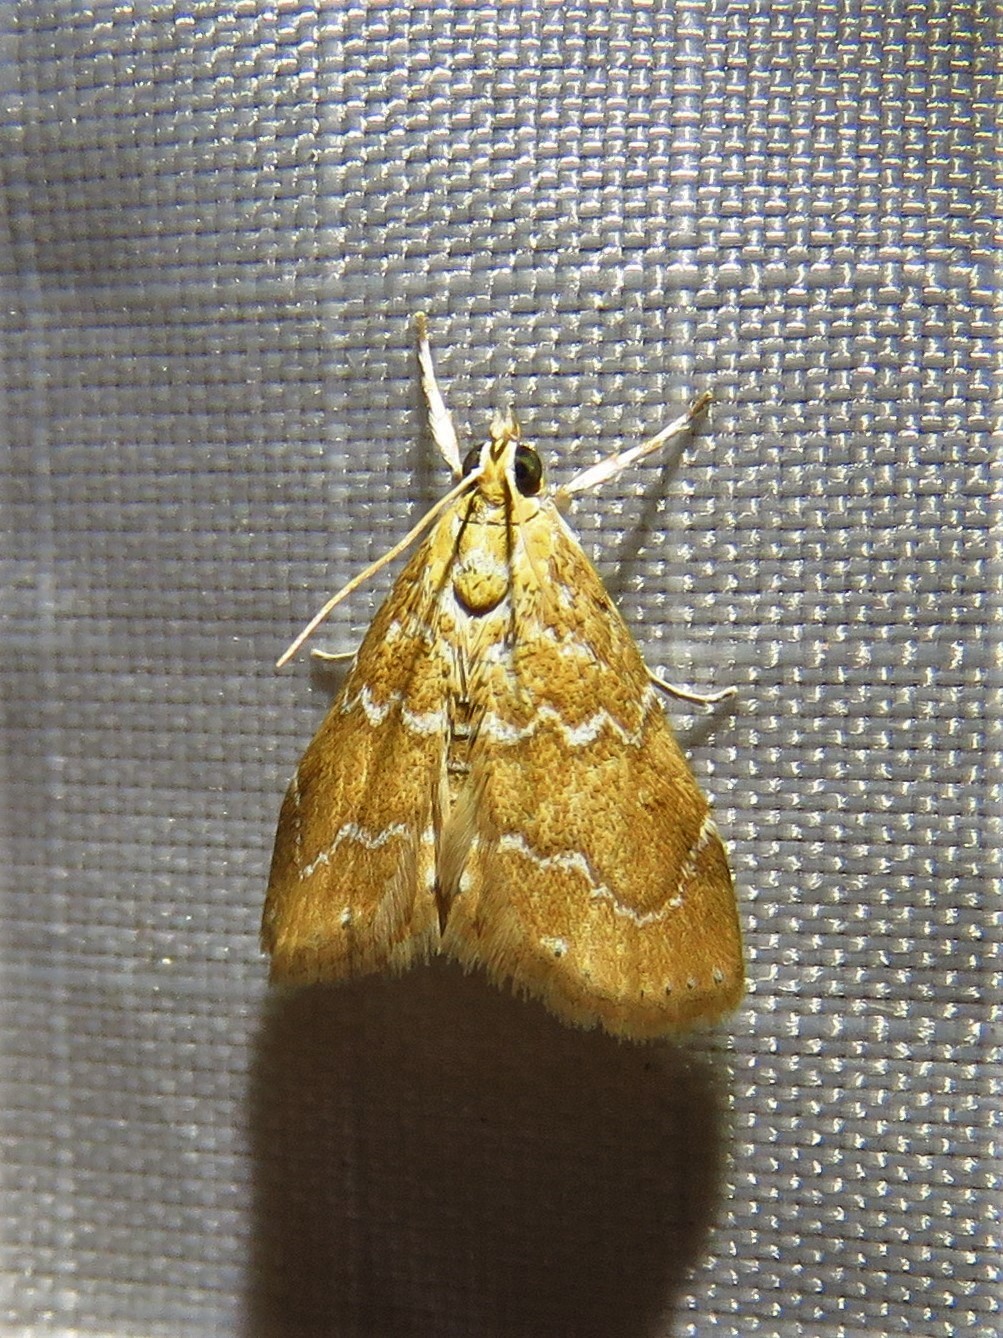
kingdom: Animalia
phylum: Arthropoda
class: Insecta
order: Lepidoptera
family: Crambidae
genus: Glaphyria
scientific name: Glaphyria sesquistrialis
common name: White-roped glaphyria
